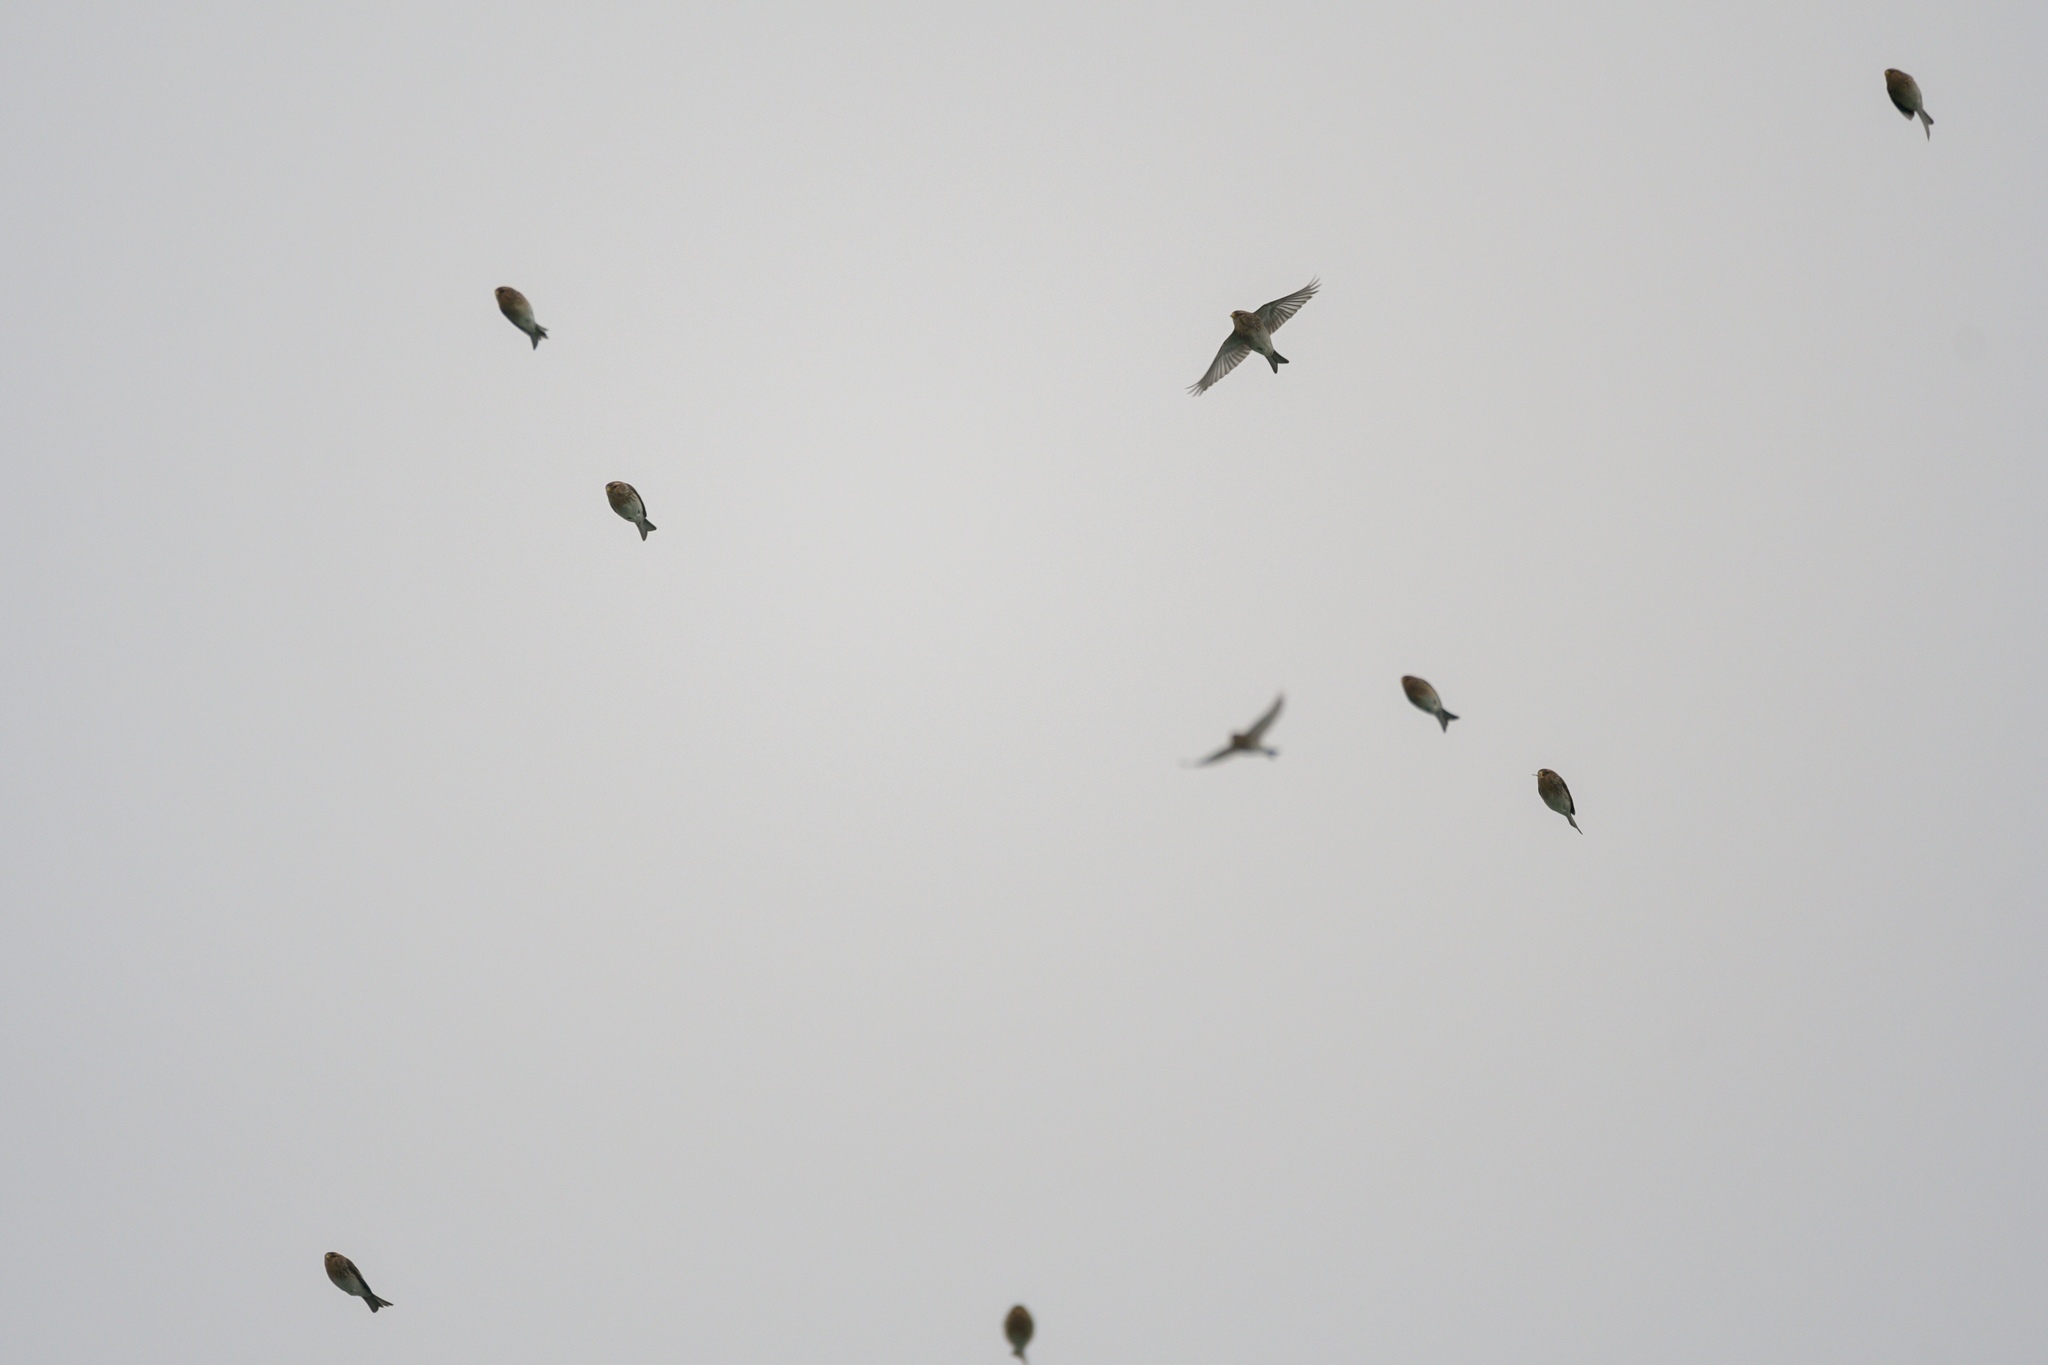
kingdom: Animalia
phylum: Chordata
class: Aves
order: Passeriformes
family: Fringillidae
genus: Linaria
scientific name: Linaria flavirostris
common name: Twite
